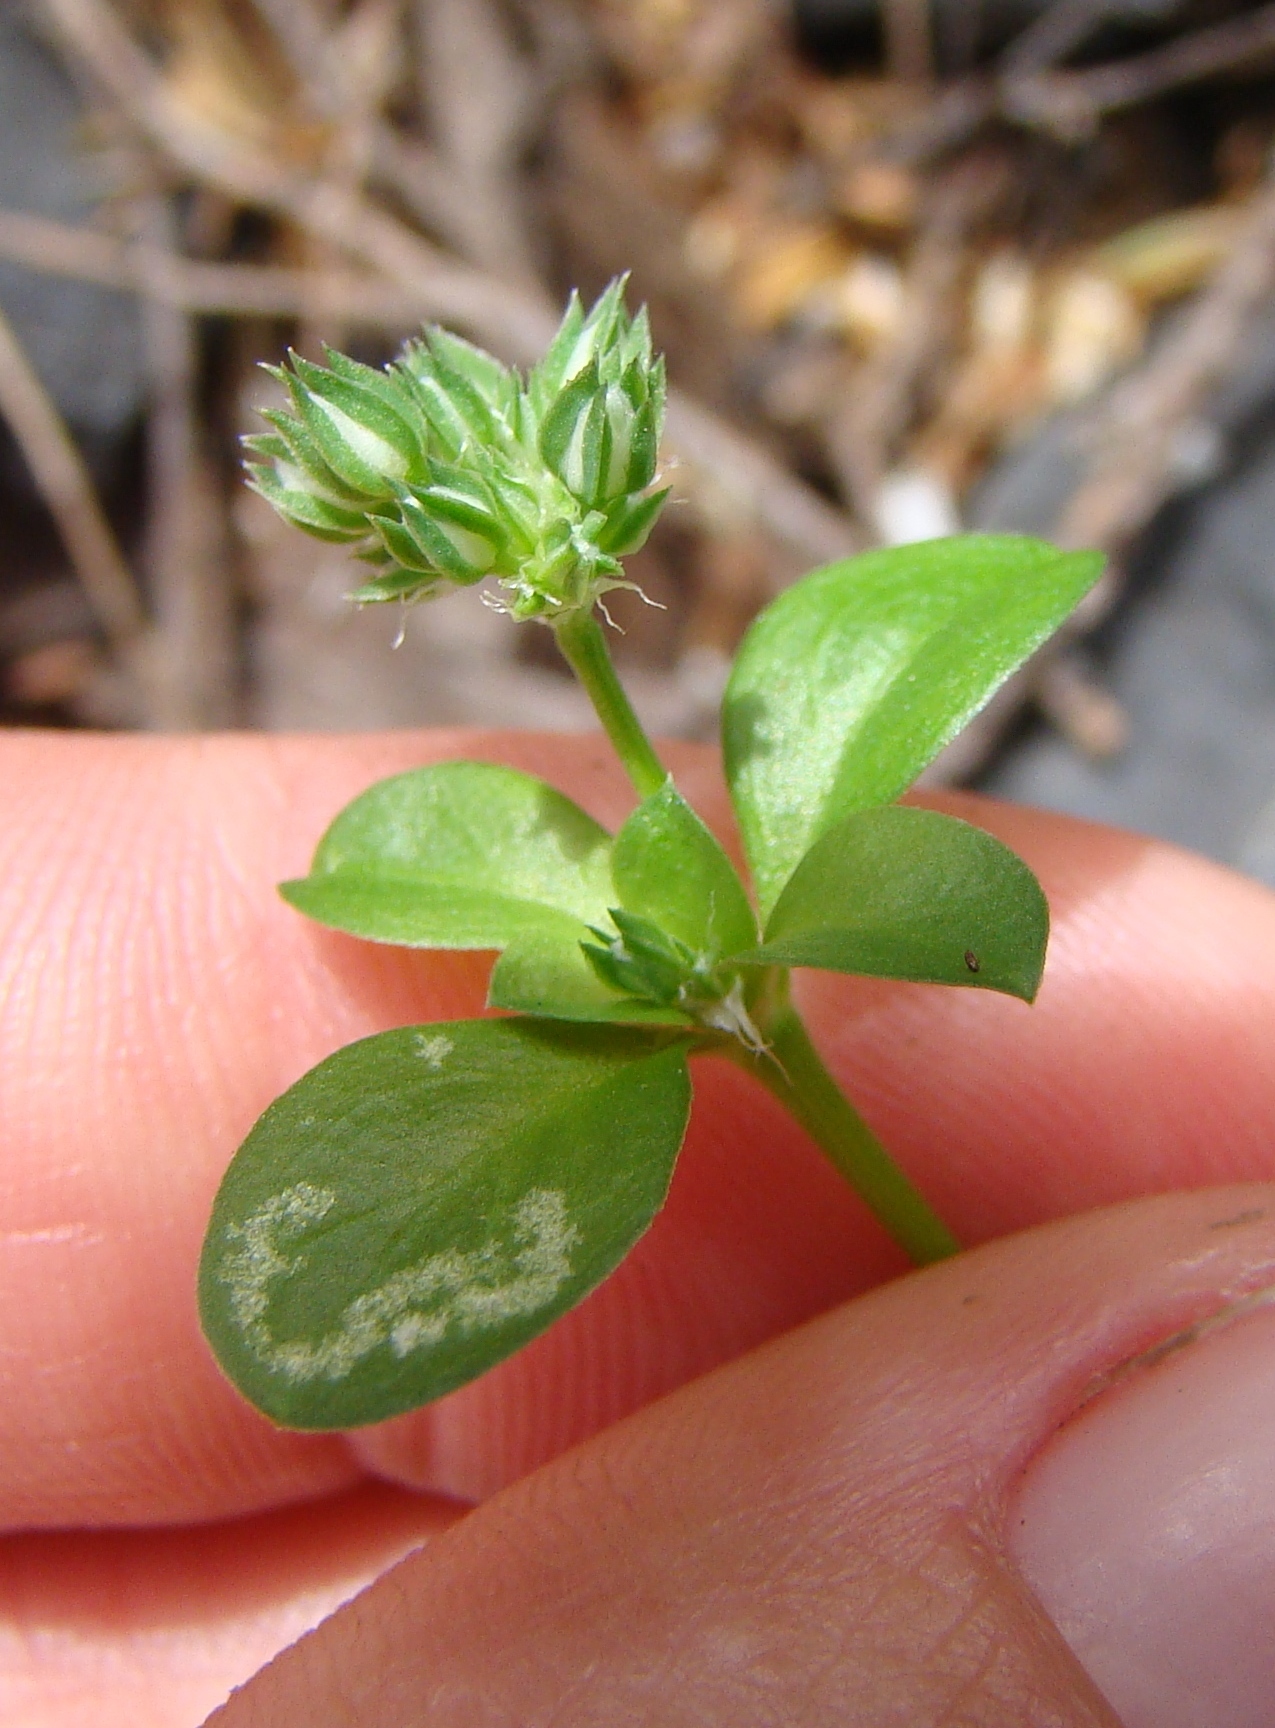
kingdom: Plantae
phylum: Tracheophyta
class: Magnoliopsida
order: Caryophyllales
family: Caryophyllaceae
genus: Stellaria
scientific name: Stellaria media
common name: Common chickweed
